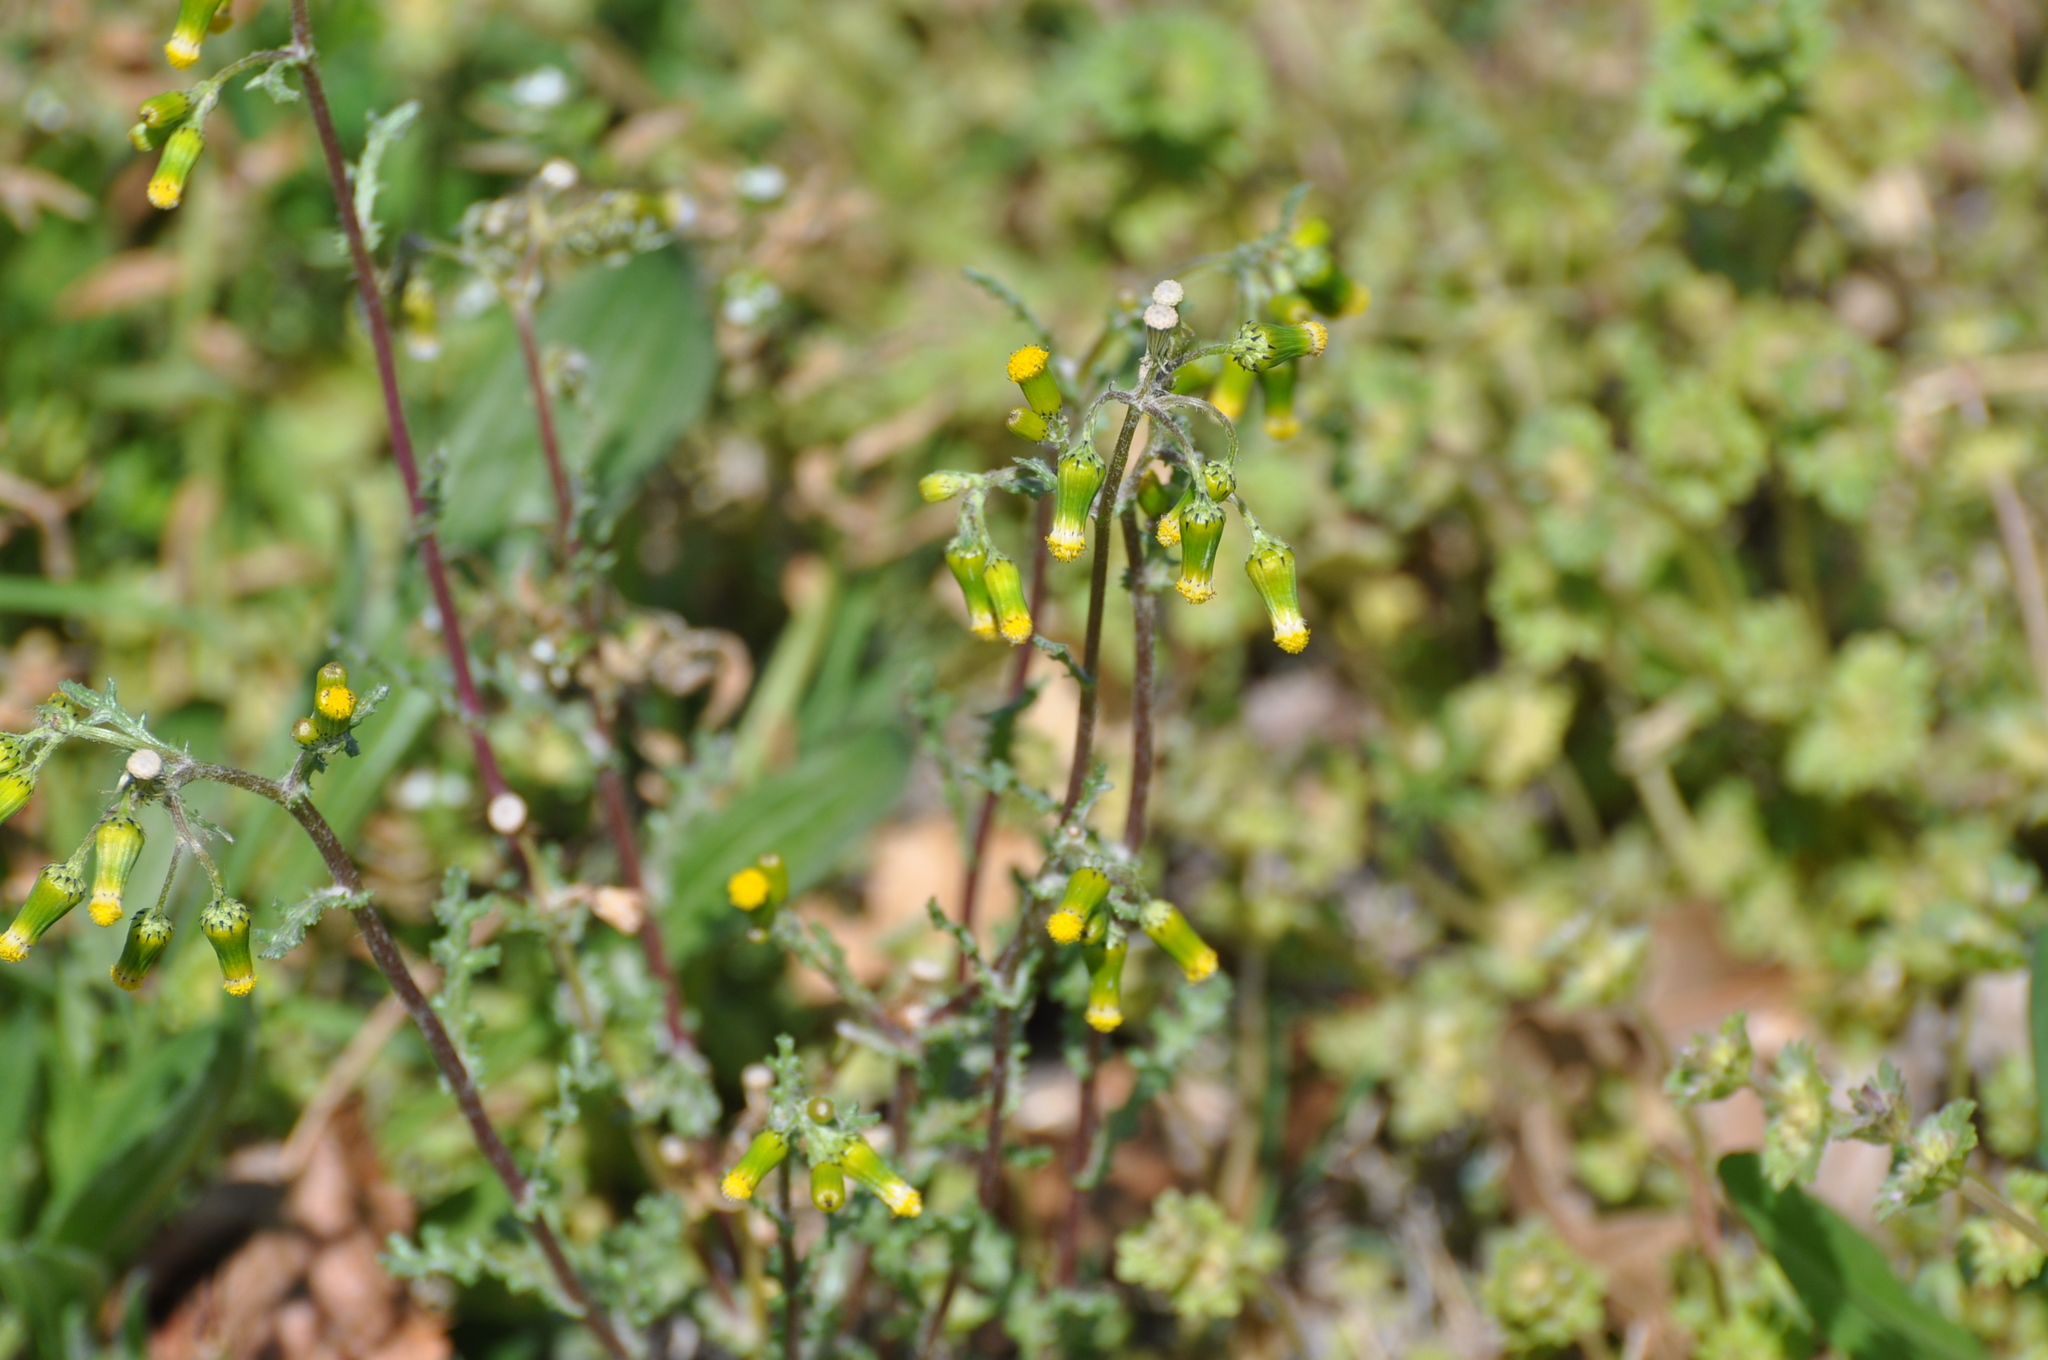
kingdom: Plantae
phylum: Tracheophyta
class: Magnoliopsida
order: Asterales
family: Asteraceae
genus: Senecio
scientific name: Senecio vulgaris
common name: Old-man-in-the-spring
